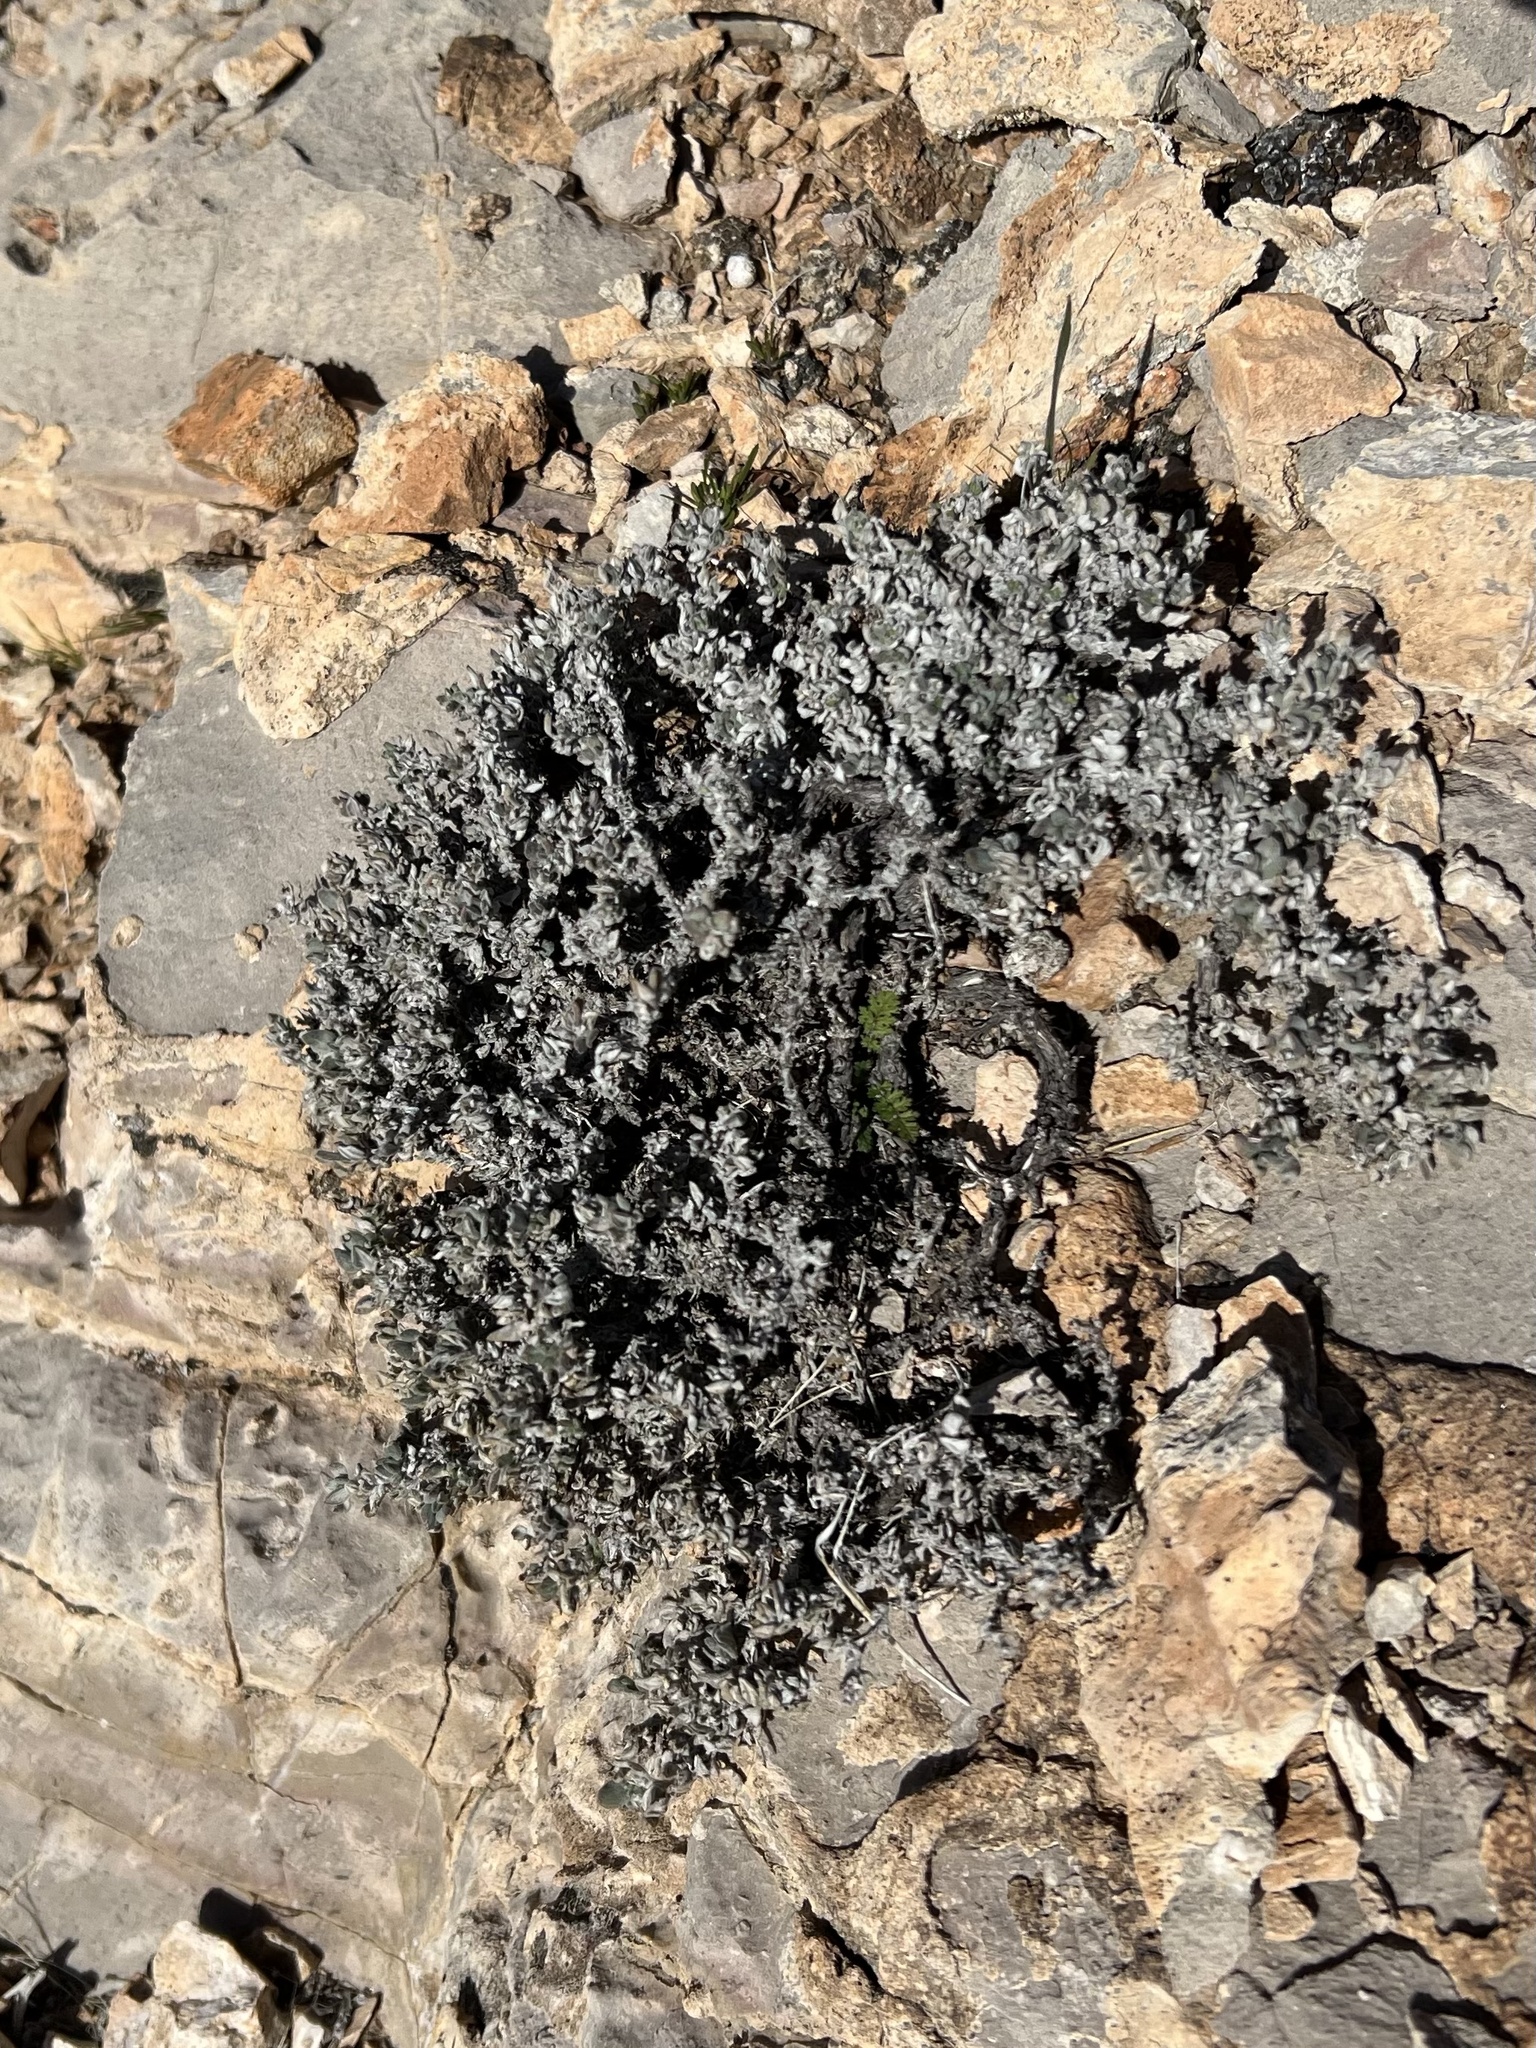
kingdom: Plantae
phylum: Tracheophyta
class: Magnoliopsida
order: Boraginales
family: Ehretiaceae
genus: Tiquilia
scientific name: Tiquilia canescens
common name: Hairy tiquilia
